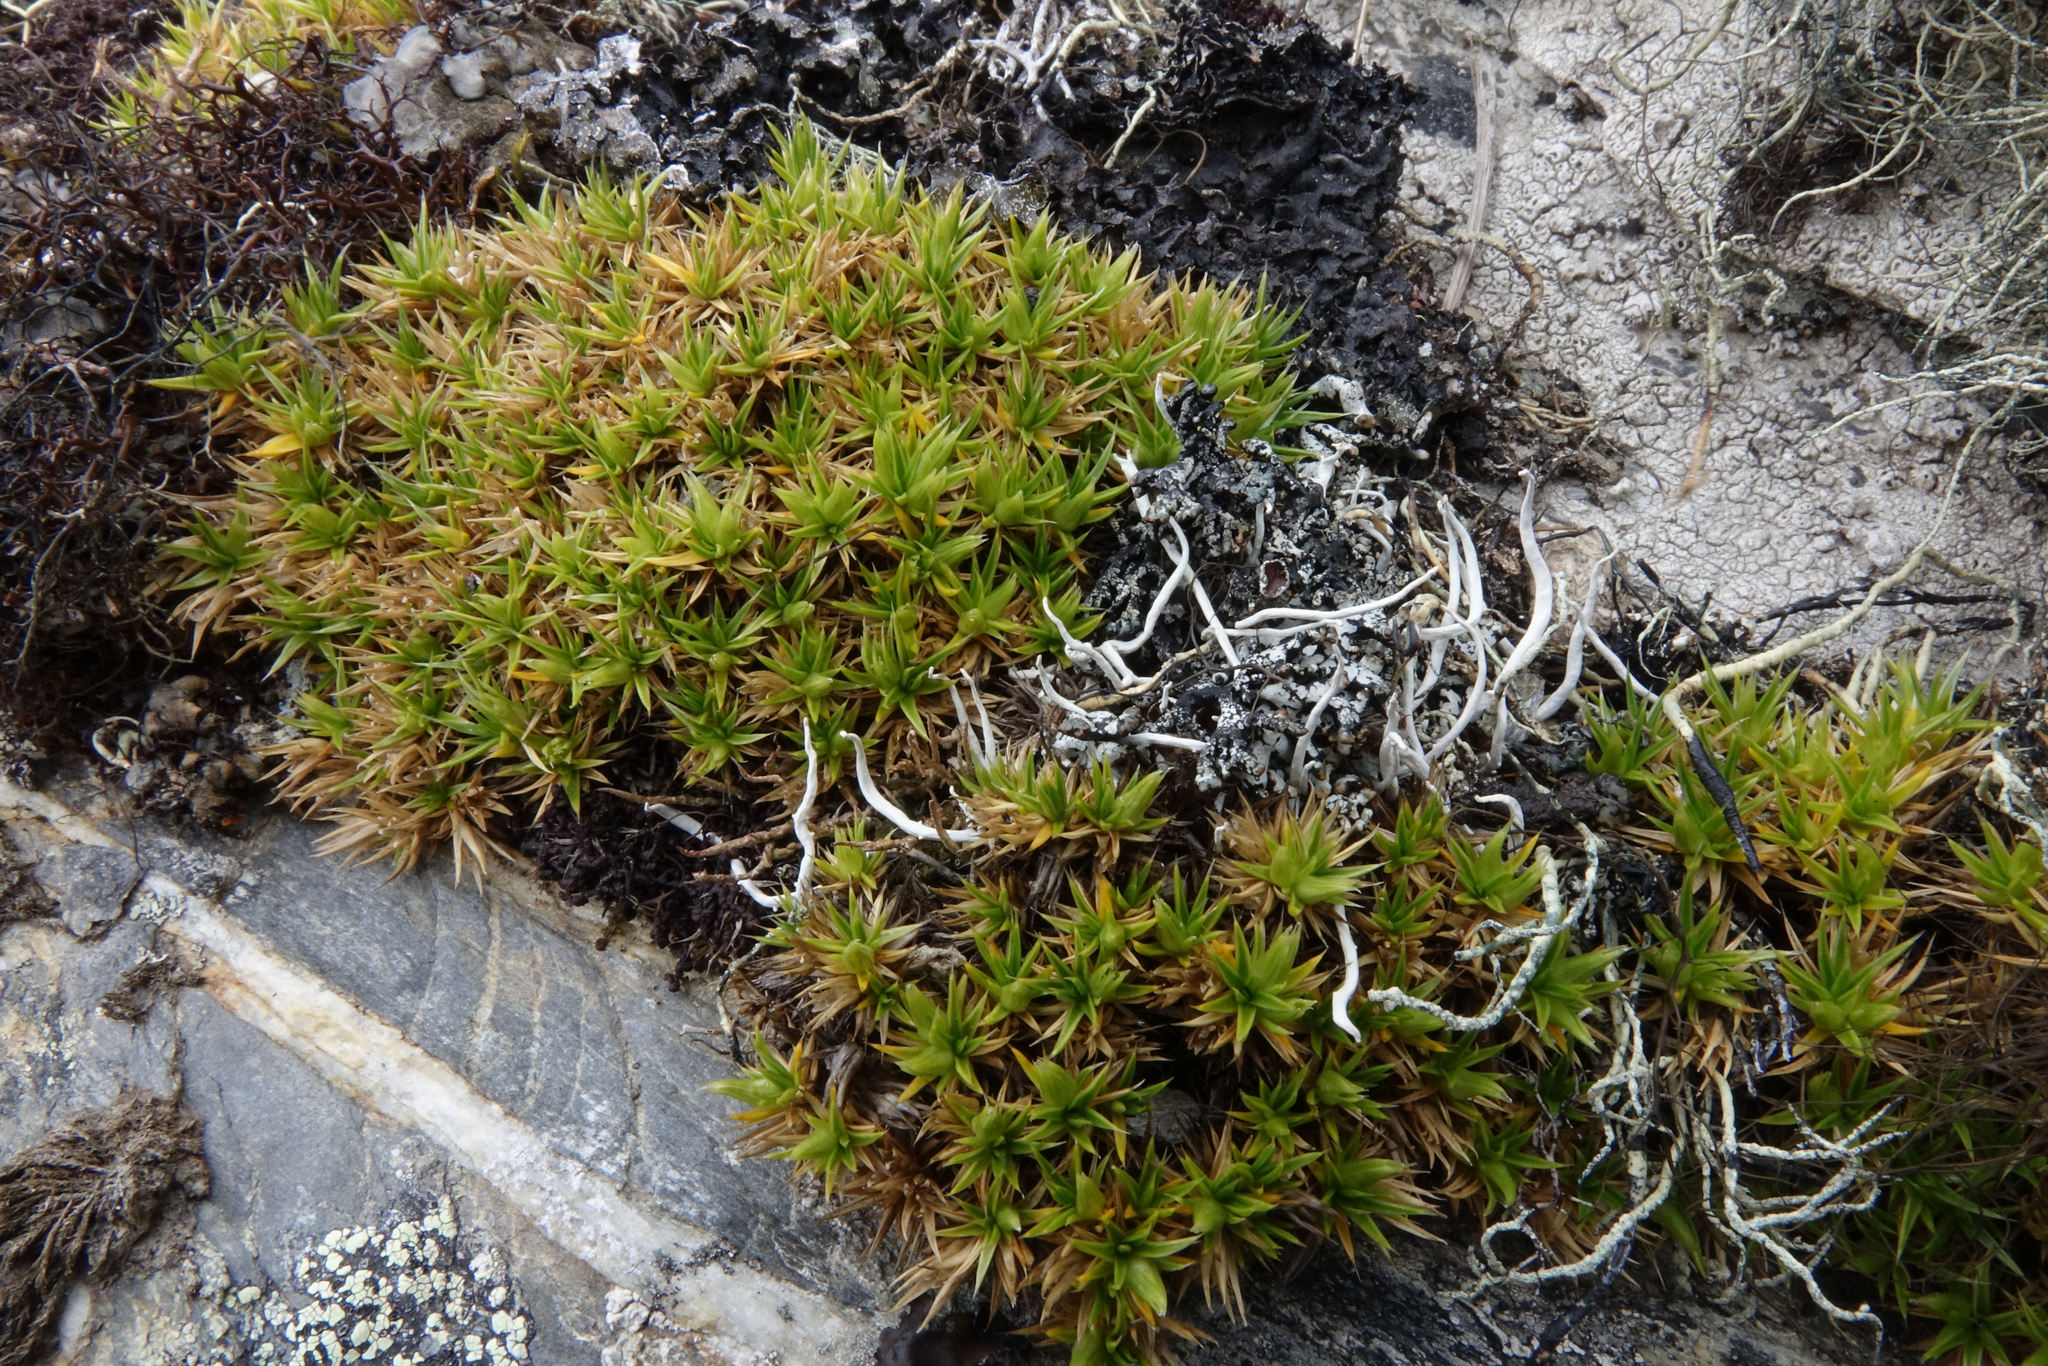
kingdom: Plantae
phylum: Tracheophyta
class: Magnoliopsida
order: Caryophyllales
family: Caryophyllaceae
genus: Colobanthus
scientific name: Colobanthus buchananii
